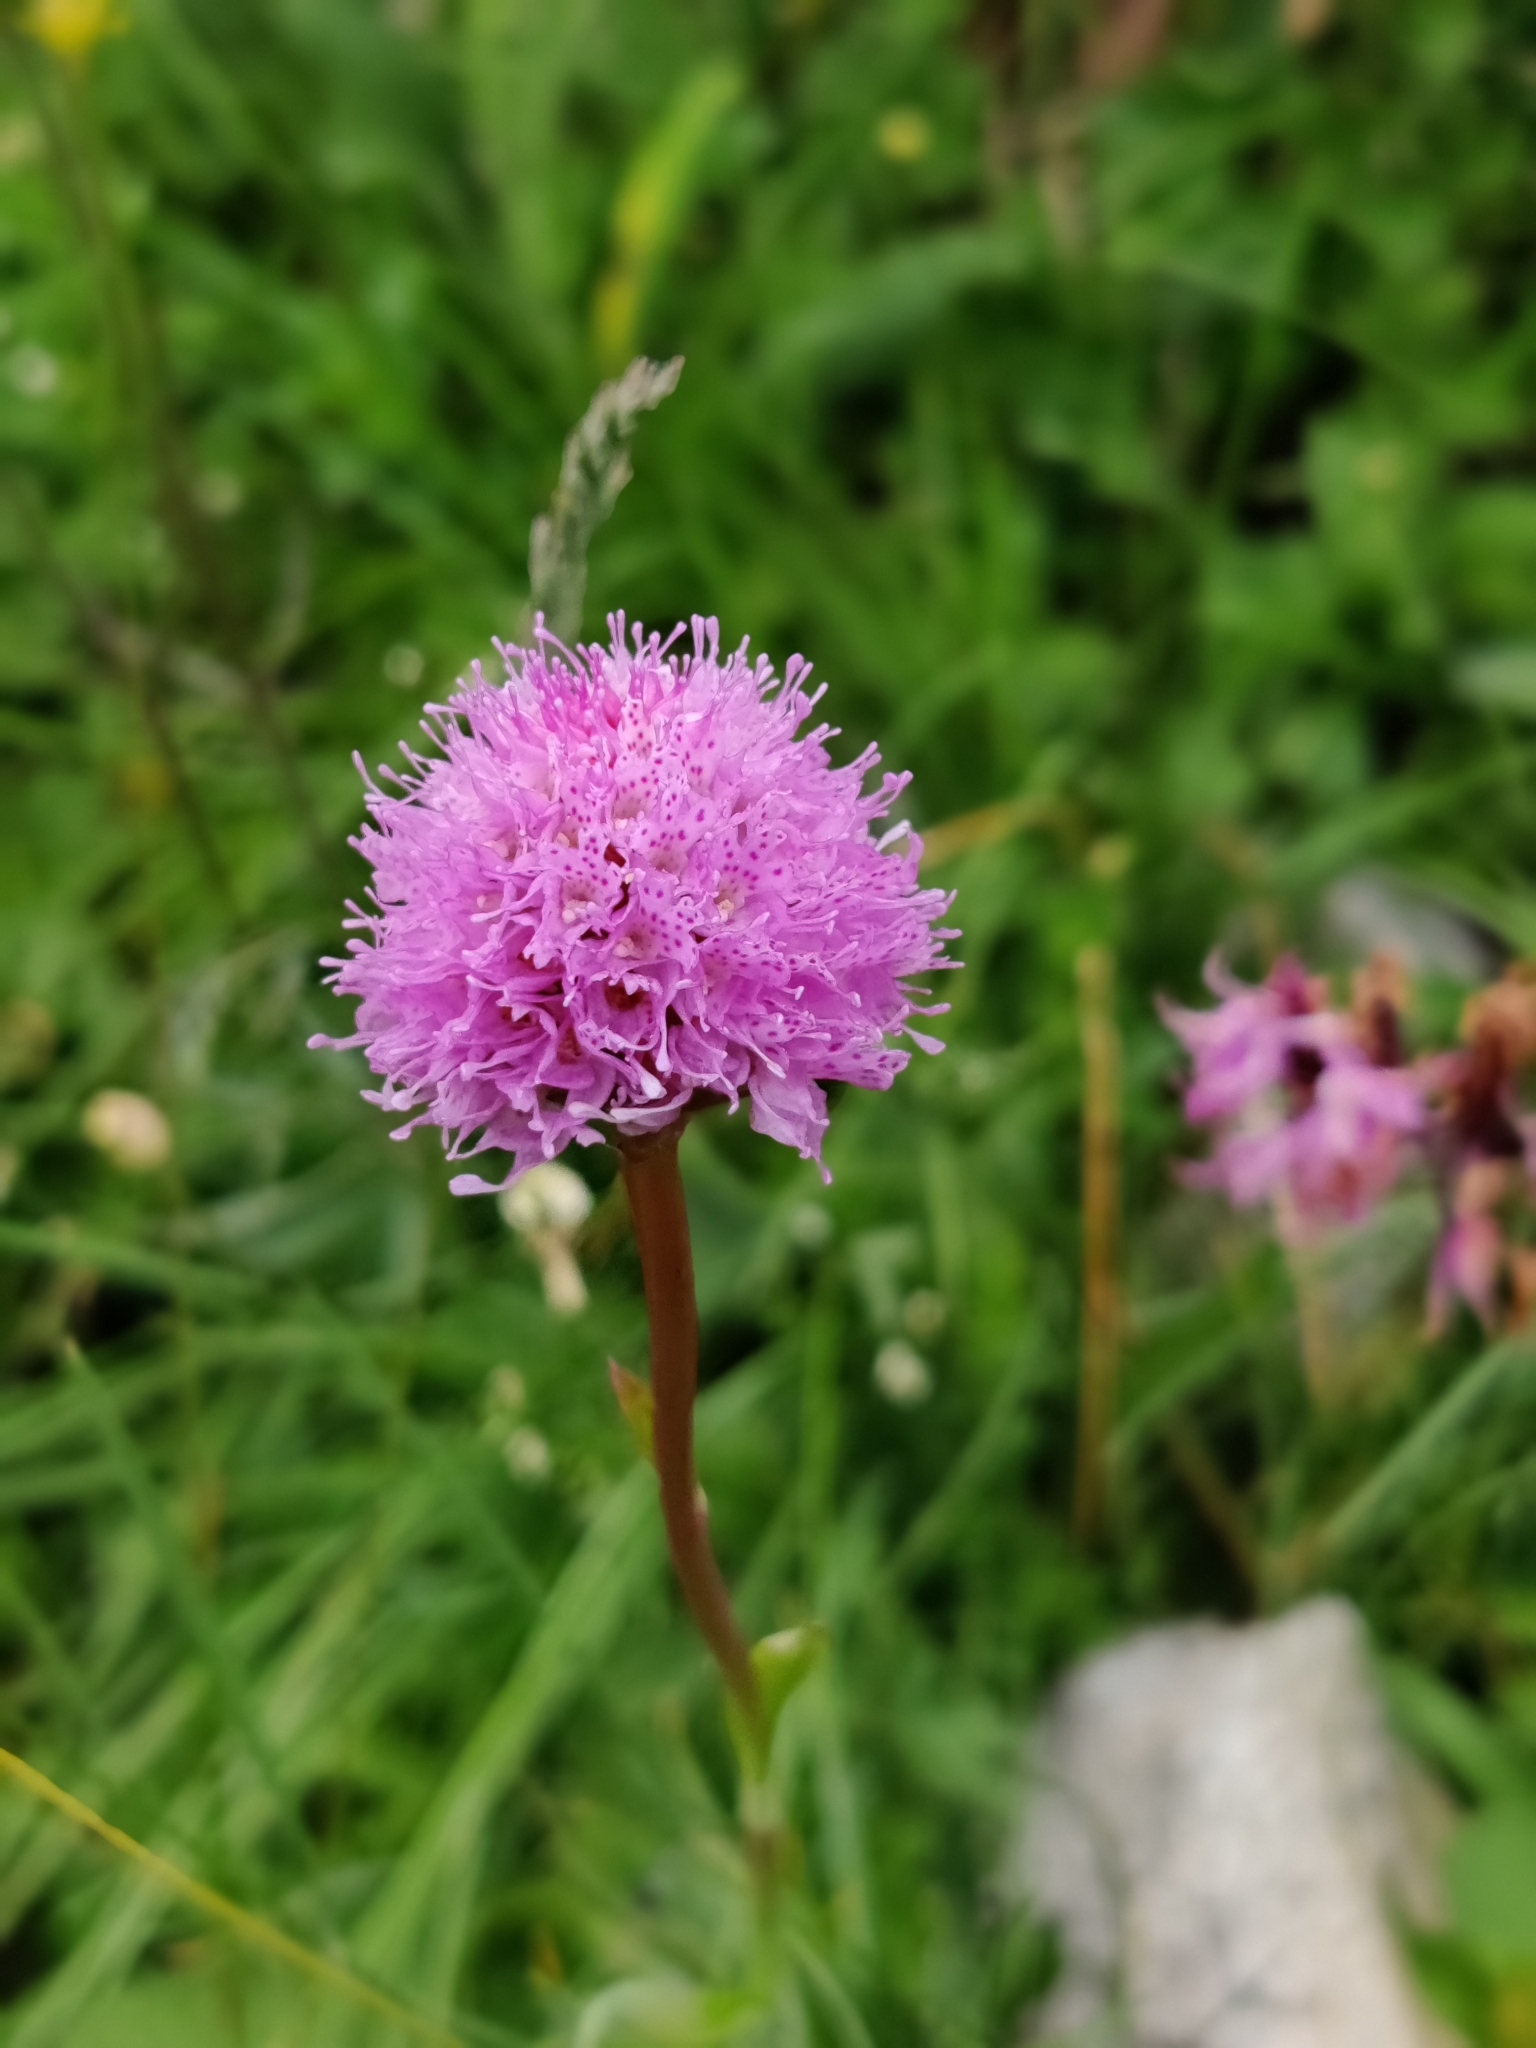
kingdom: Plantae
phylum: Tracheophyta
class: Liliopsida
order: Asparagales
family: Orchidaceae
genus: Traunsteinera
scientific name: Traunsteinera globosa
